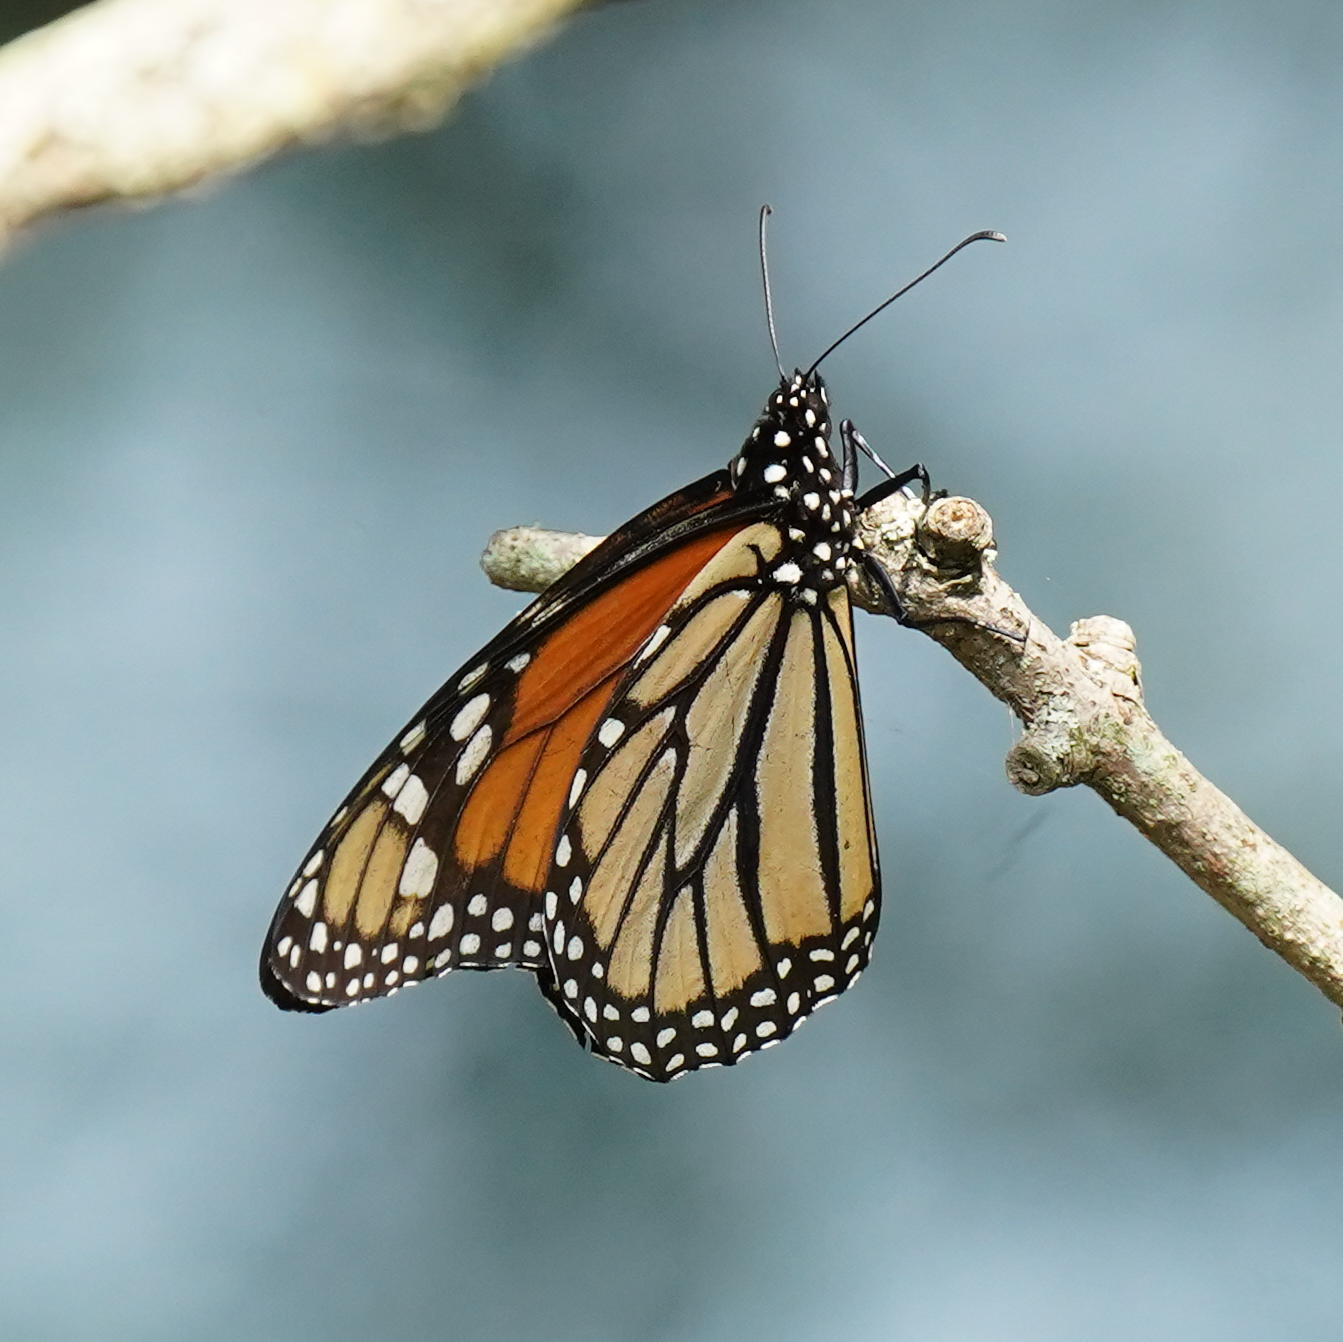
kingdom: Animalia
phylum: Arthropoda
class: Insecta
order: Lepidoptera
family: Nymphalidae
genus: Danaus
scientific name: Danaus plexippus
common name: Monarch
